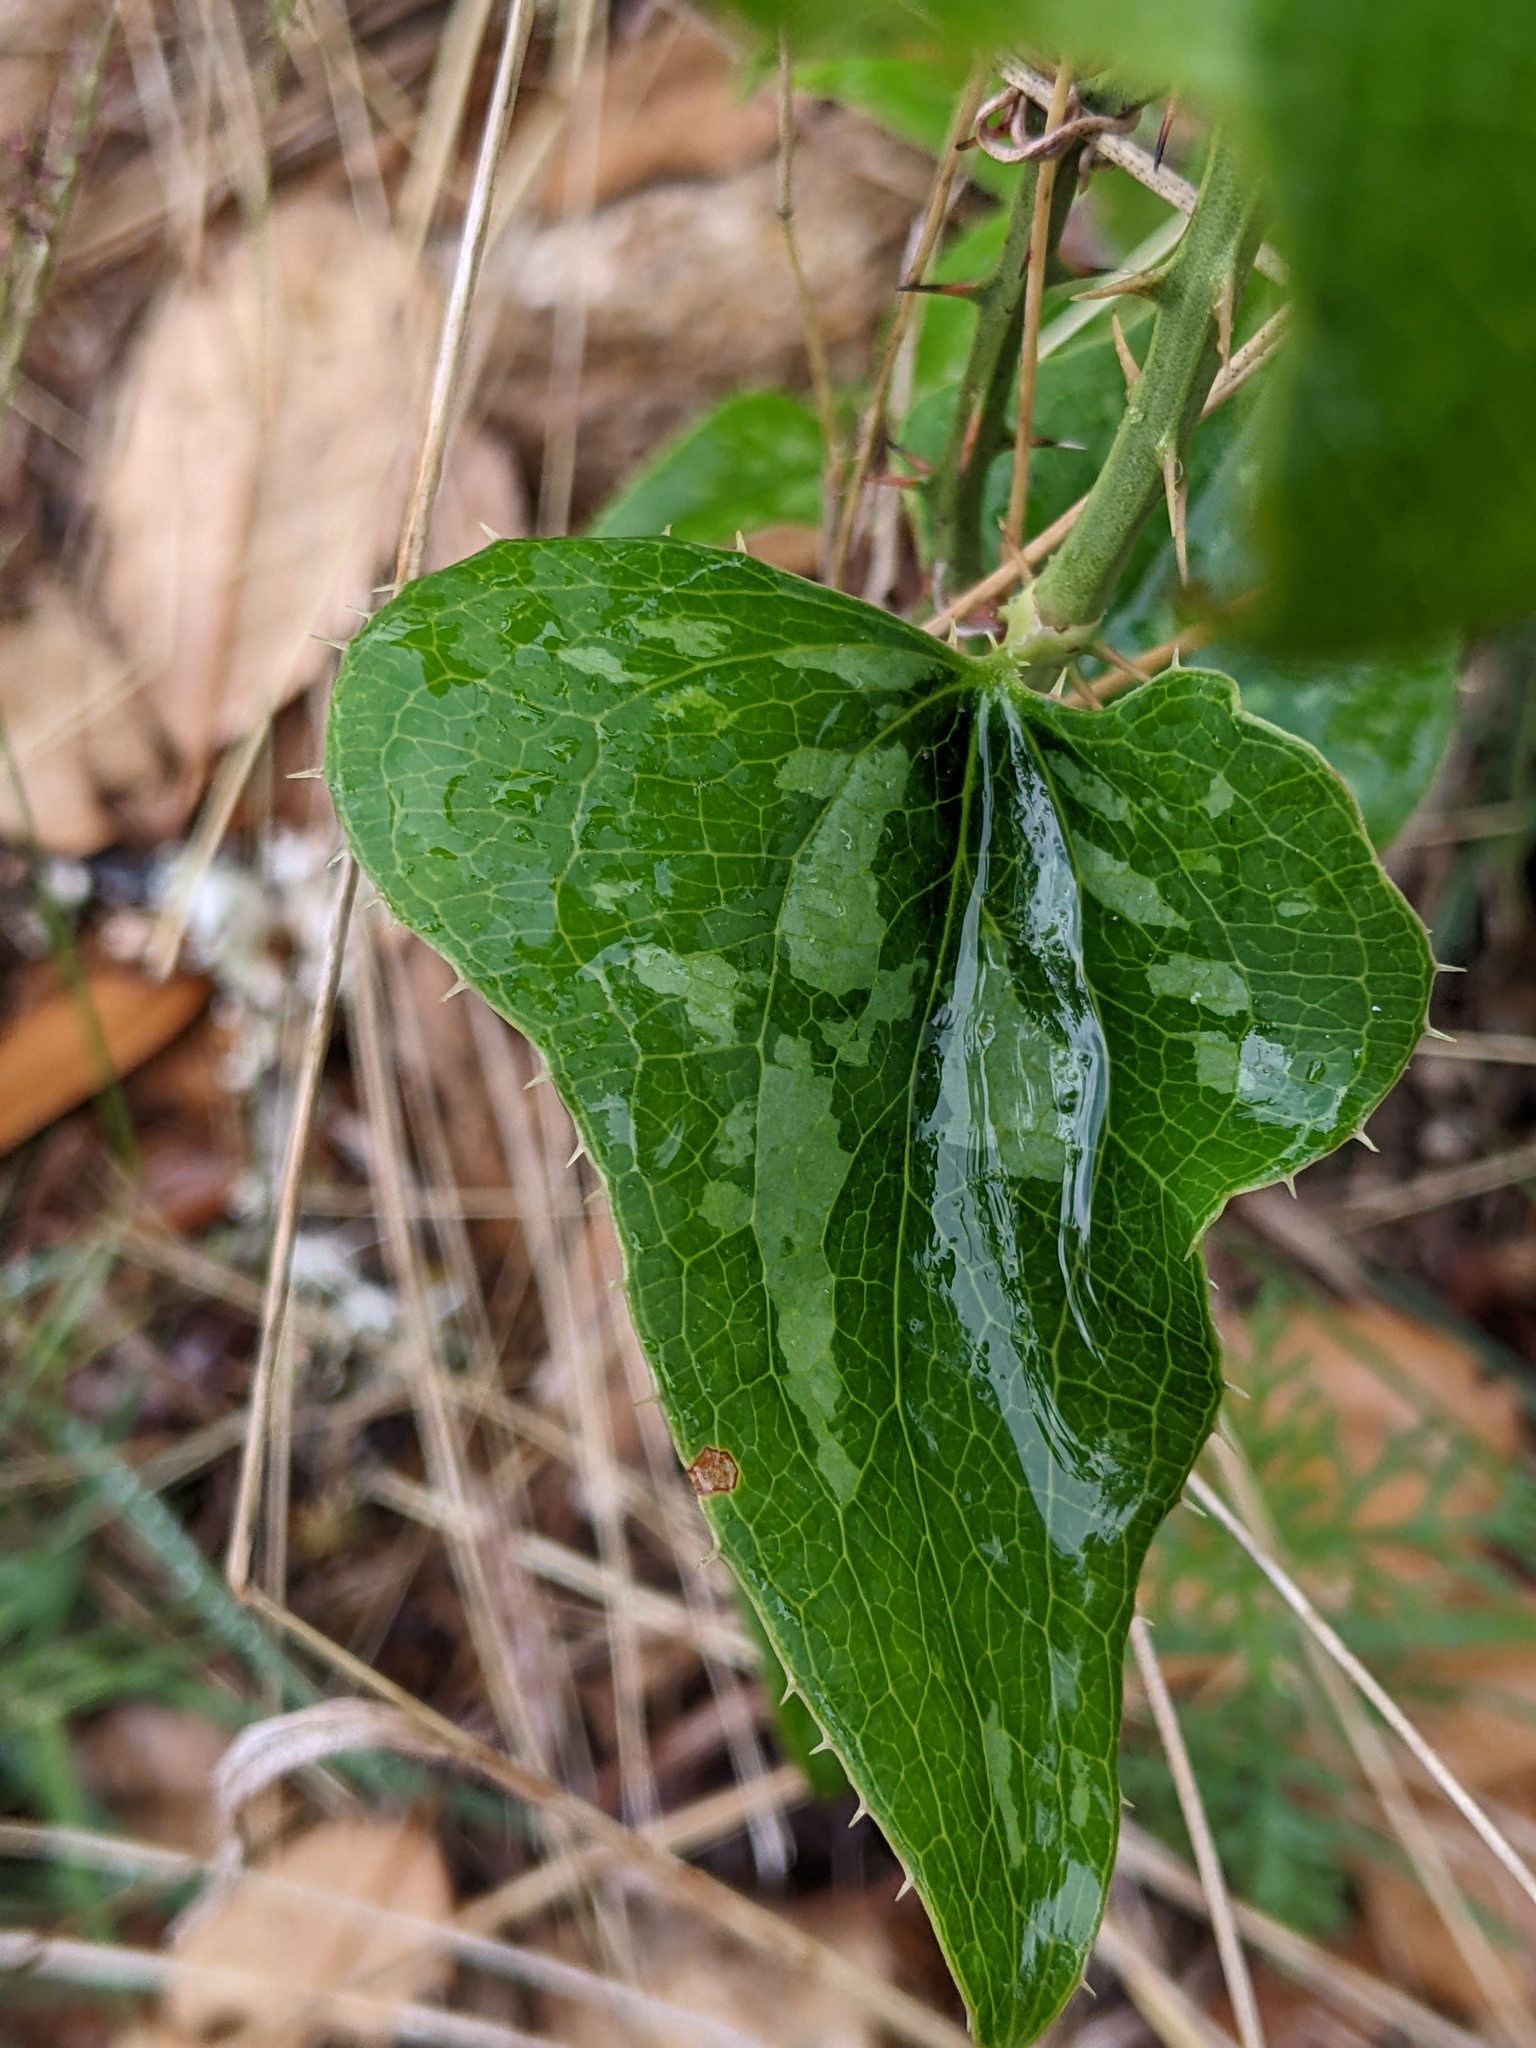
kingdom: Plantae
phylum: Tracheophyta
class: Liliopsida
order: Liliales
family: Smilacaceae
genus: Smilax
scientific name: Smilax bona-nox
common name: Catbrier
